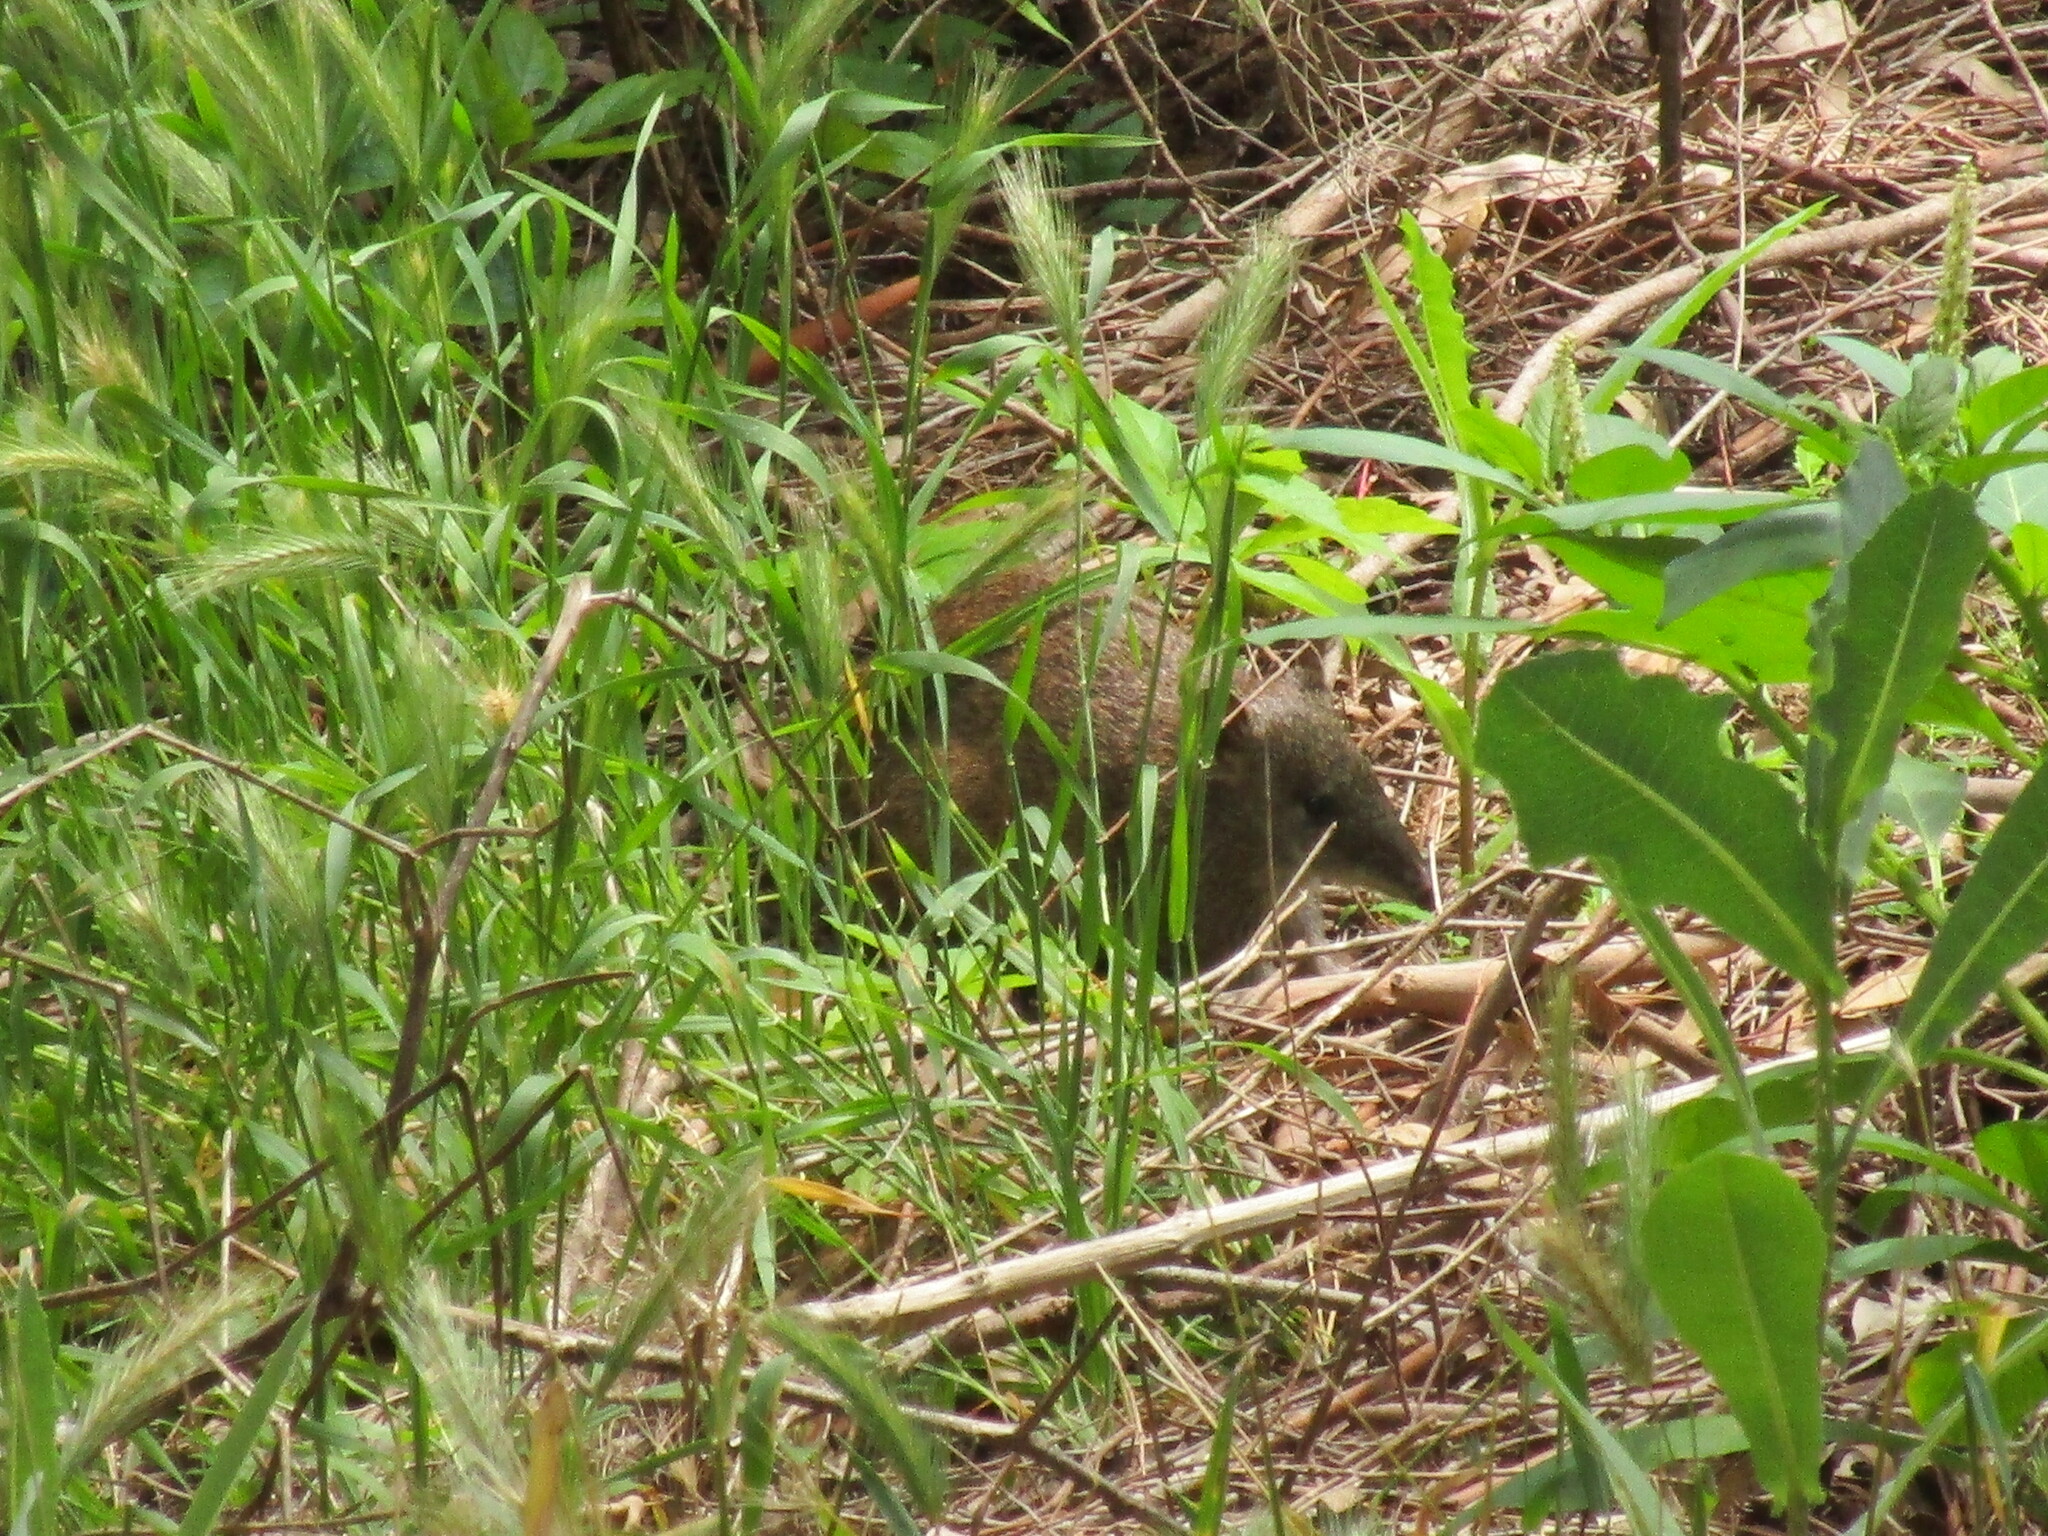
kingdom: Animalia
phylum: Chordata
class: Mammalia
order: Peramelemorphia
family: Peramelidae
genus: Isoodon
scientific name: Isoodon fusciventer
